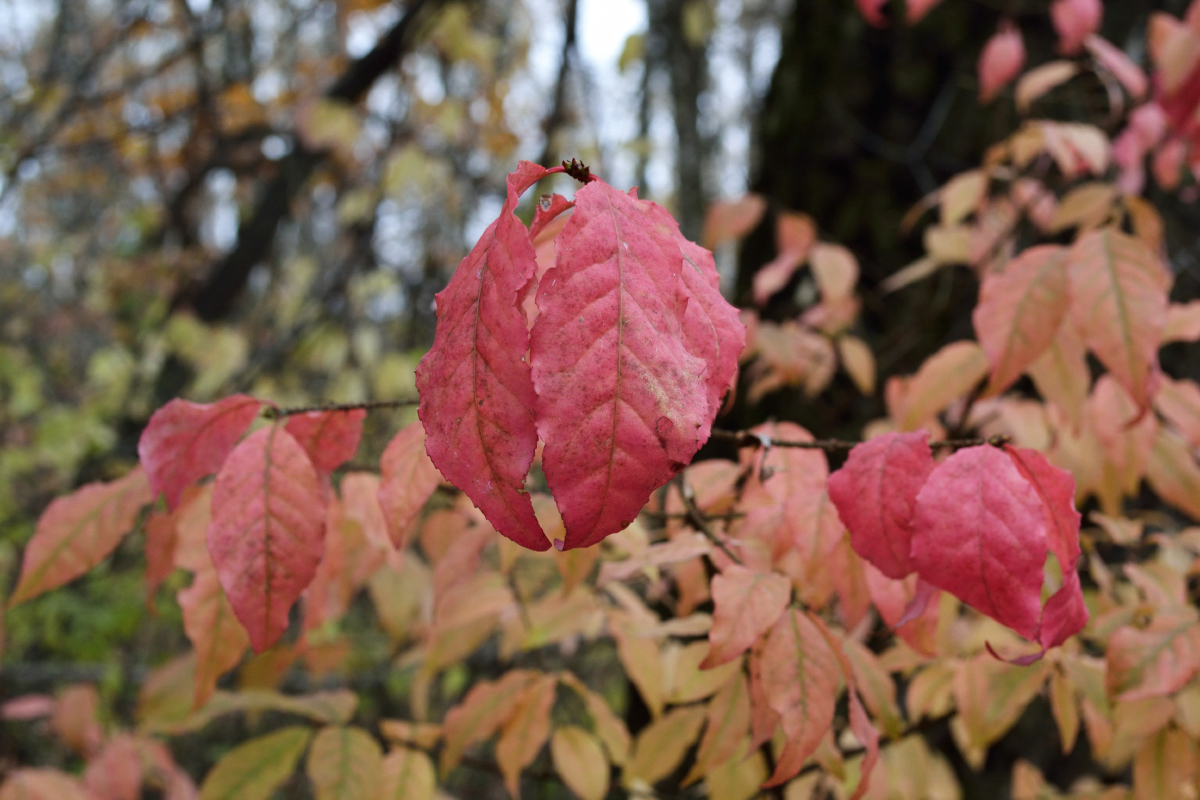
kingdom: Plantae
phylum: Tracheophyta
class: Magnoliopsida
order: Celastrales
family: Celastraceae
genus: Euonymus
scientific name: Euonymus verrucosus
